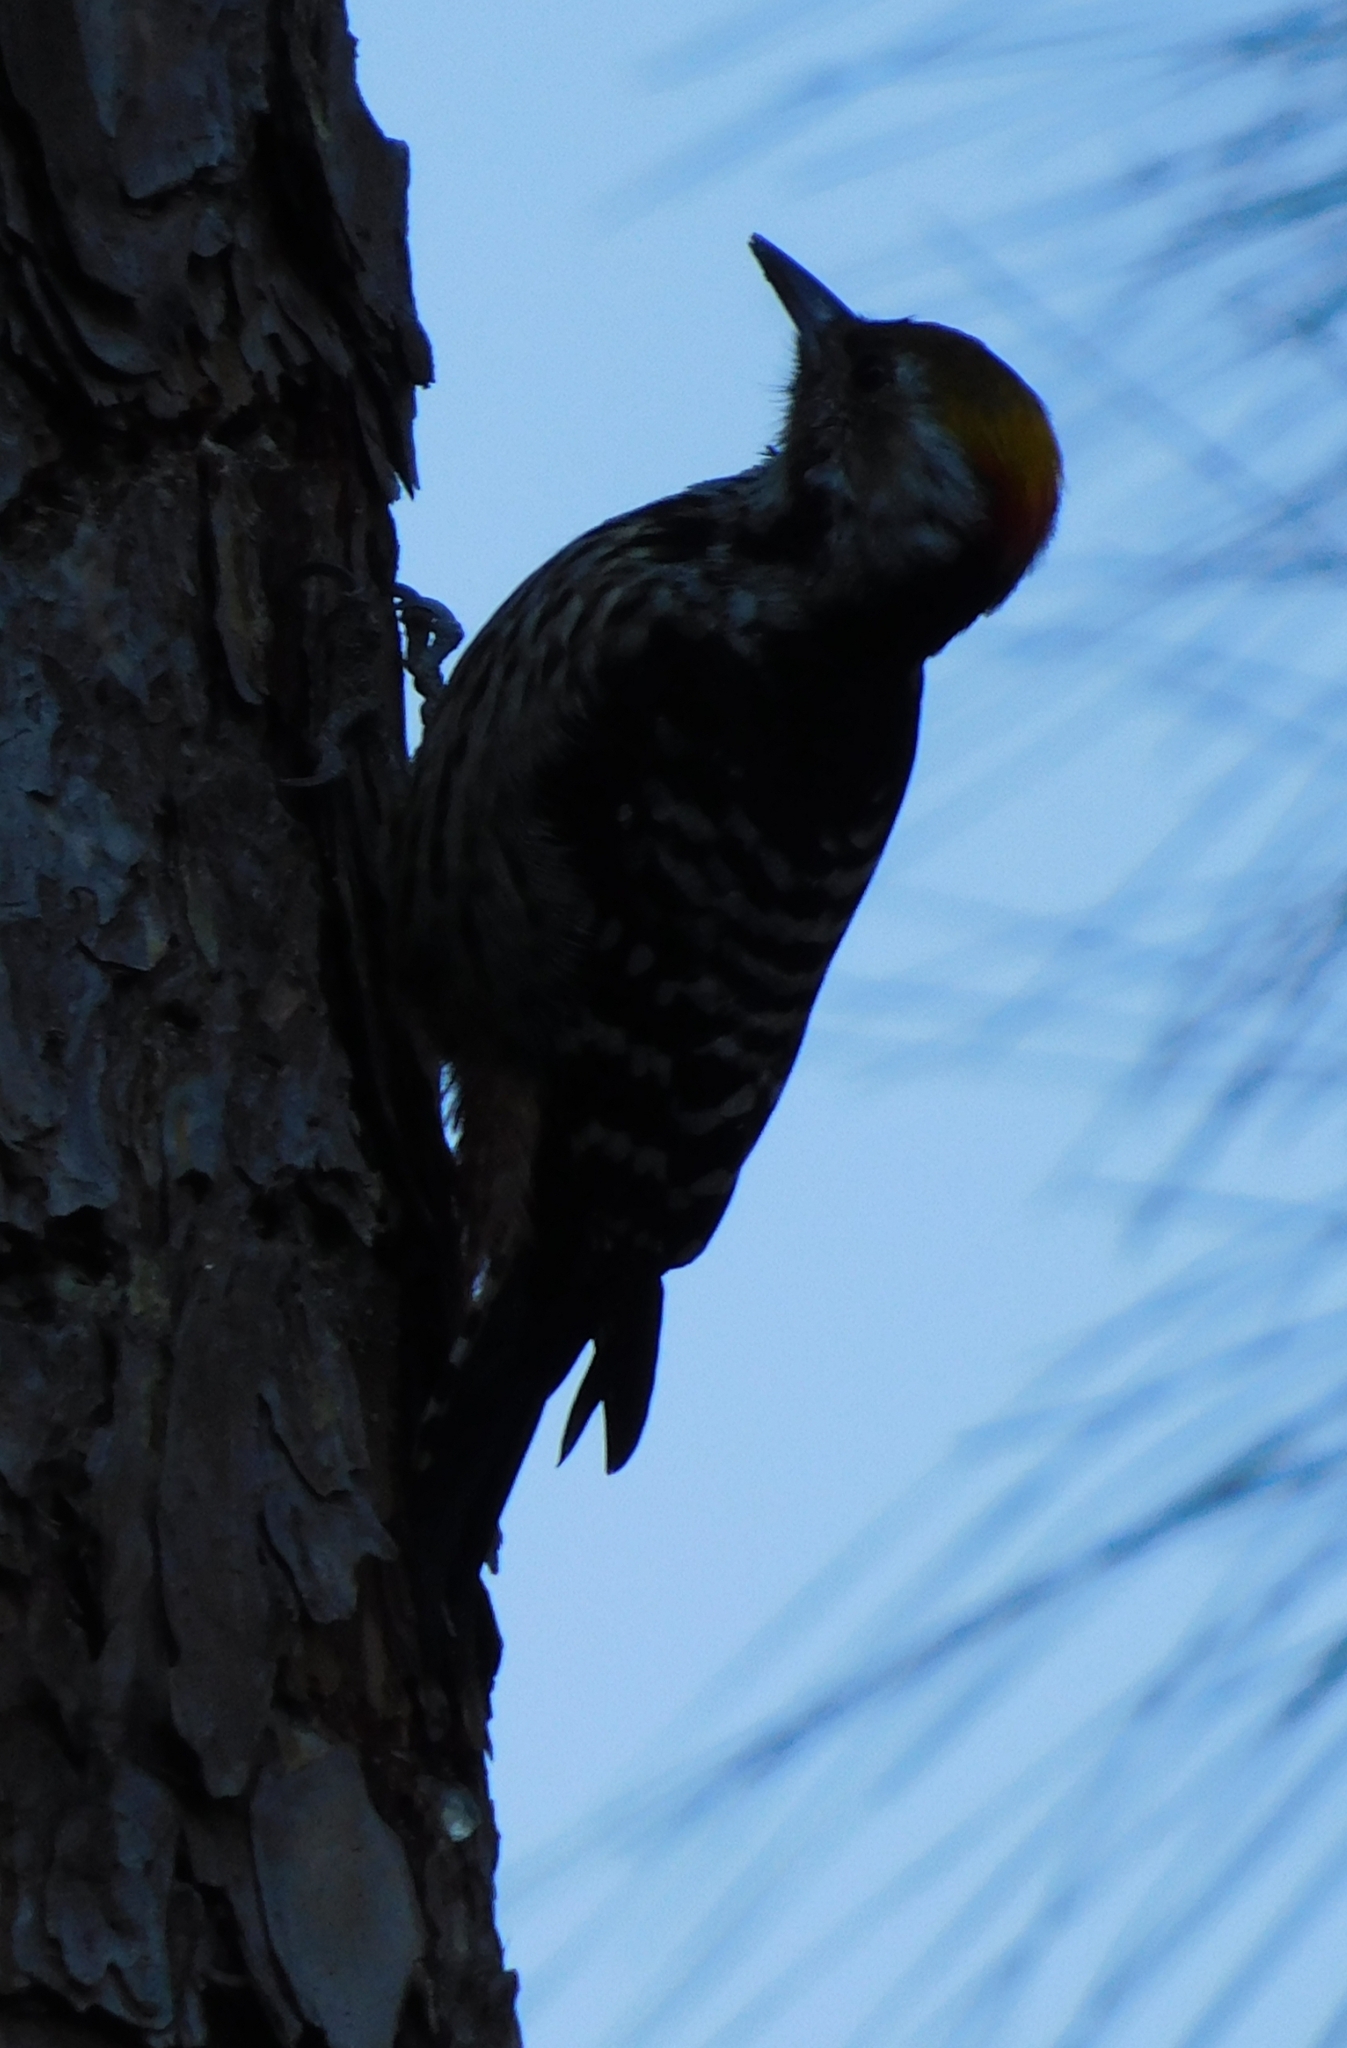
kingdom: Animalia
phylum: Chordata
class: Aves
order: Piciformes
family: Picidae
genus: Dendrocoptes
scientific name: Dendrocoptes auriceps
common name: Brown-fronted woodpecker
